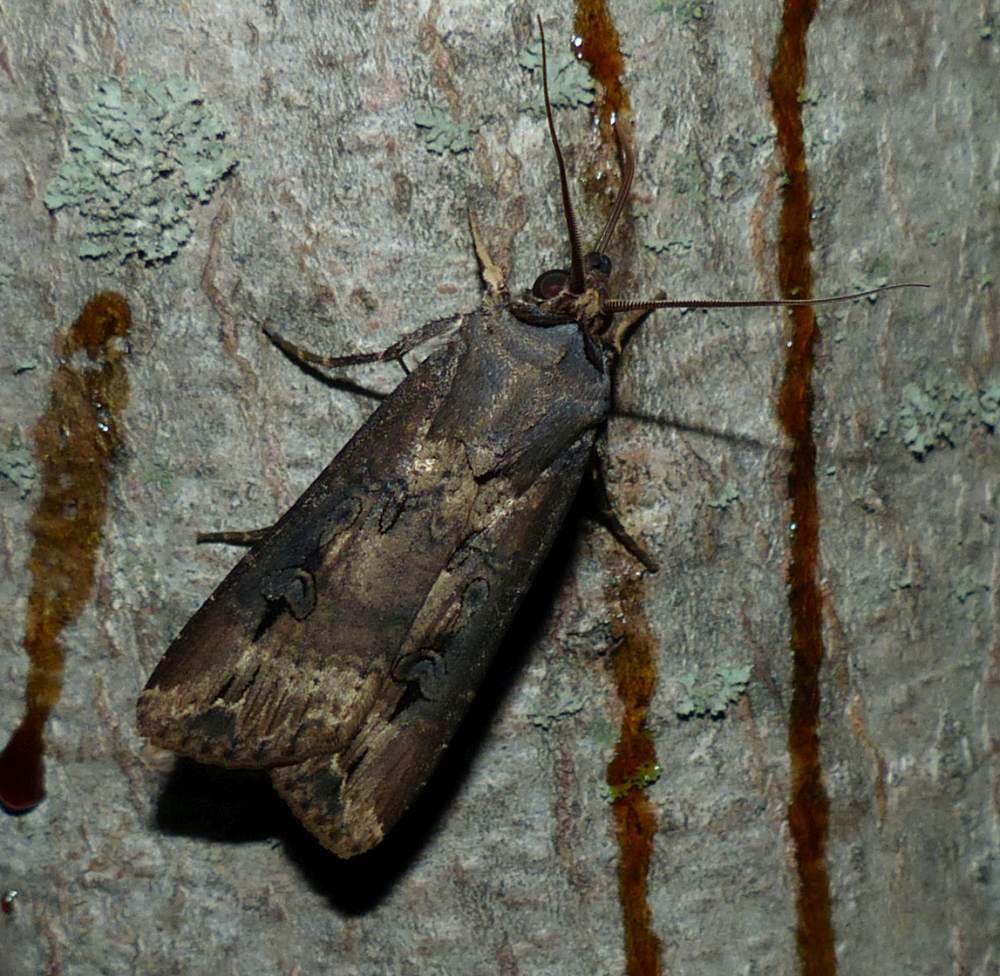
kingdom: Animalia
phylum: Arthropoda
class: Insecta
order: Lepidoptera
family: Noctuidae
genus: Agrotis
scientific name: Agrotis ipsilon
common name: Dark sword-grass
